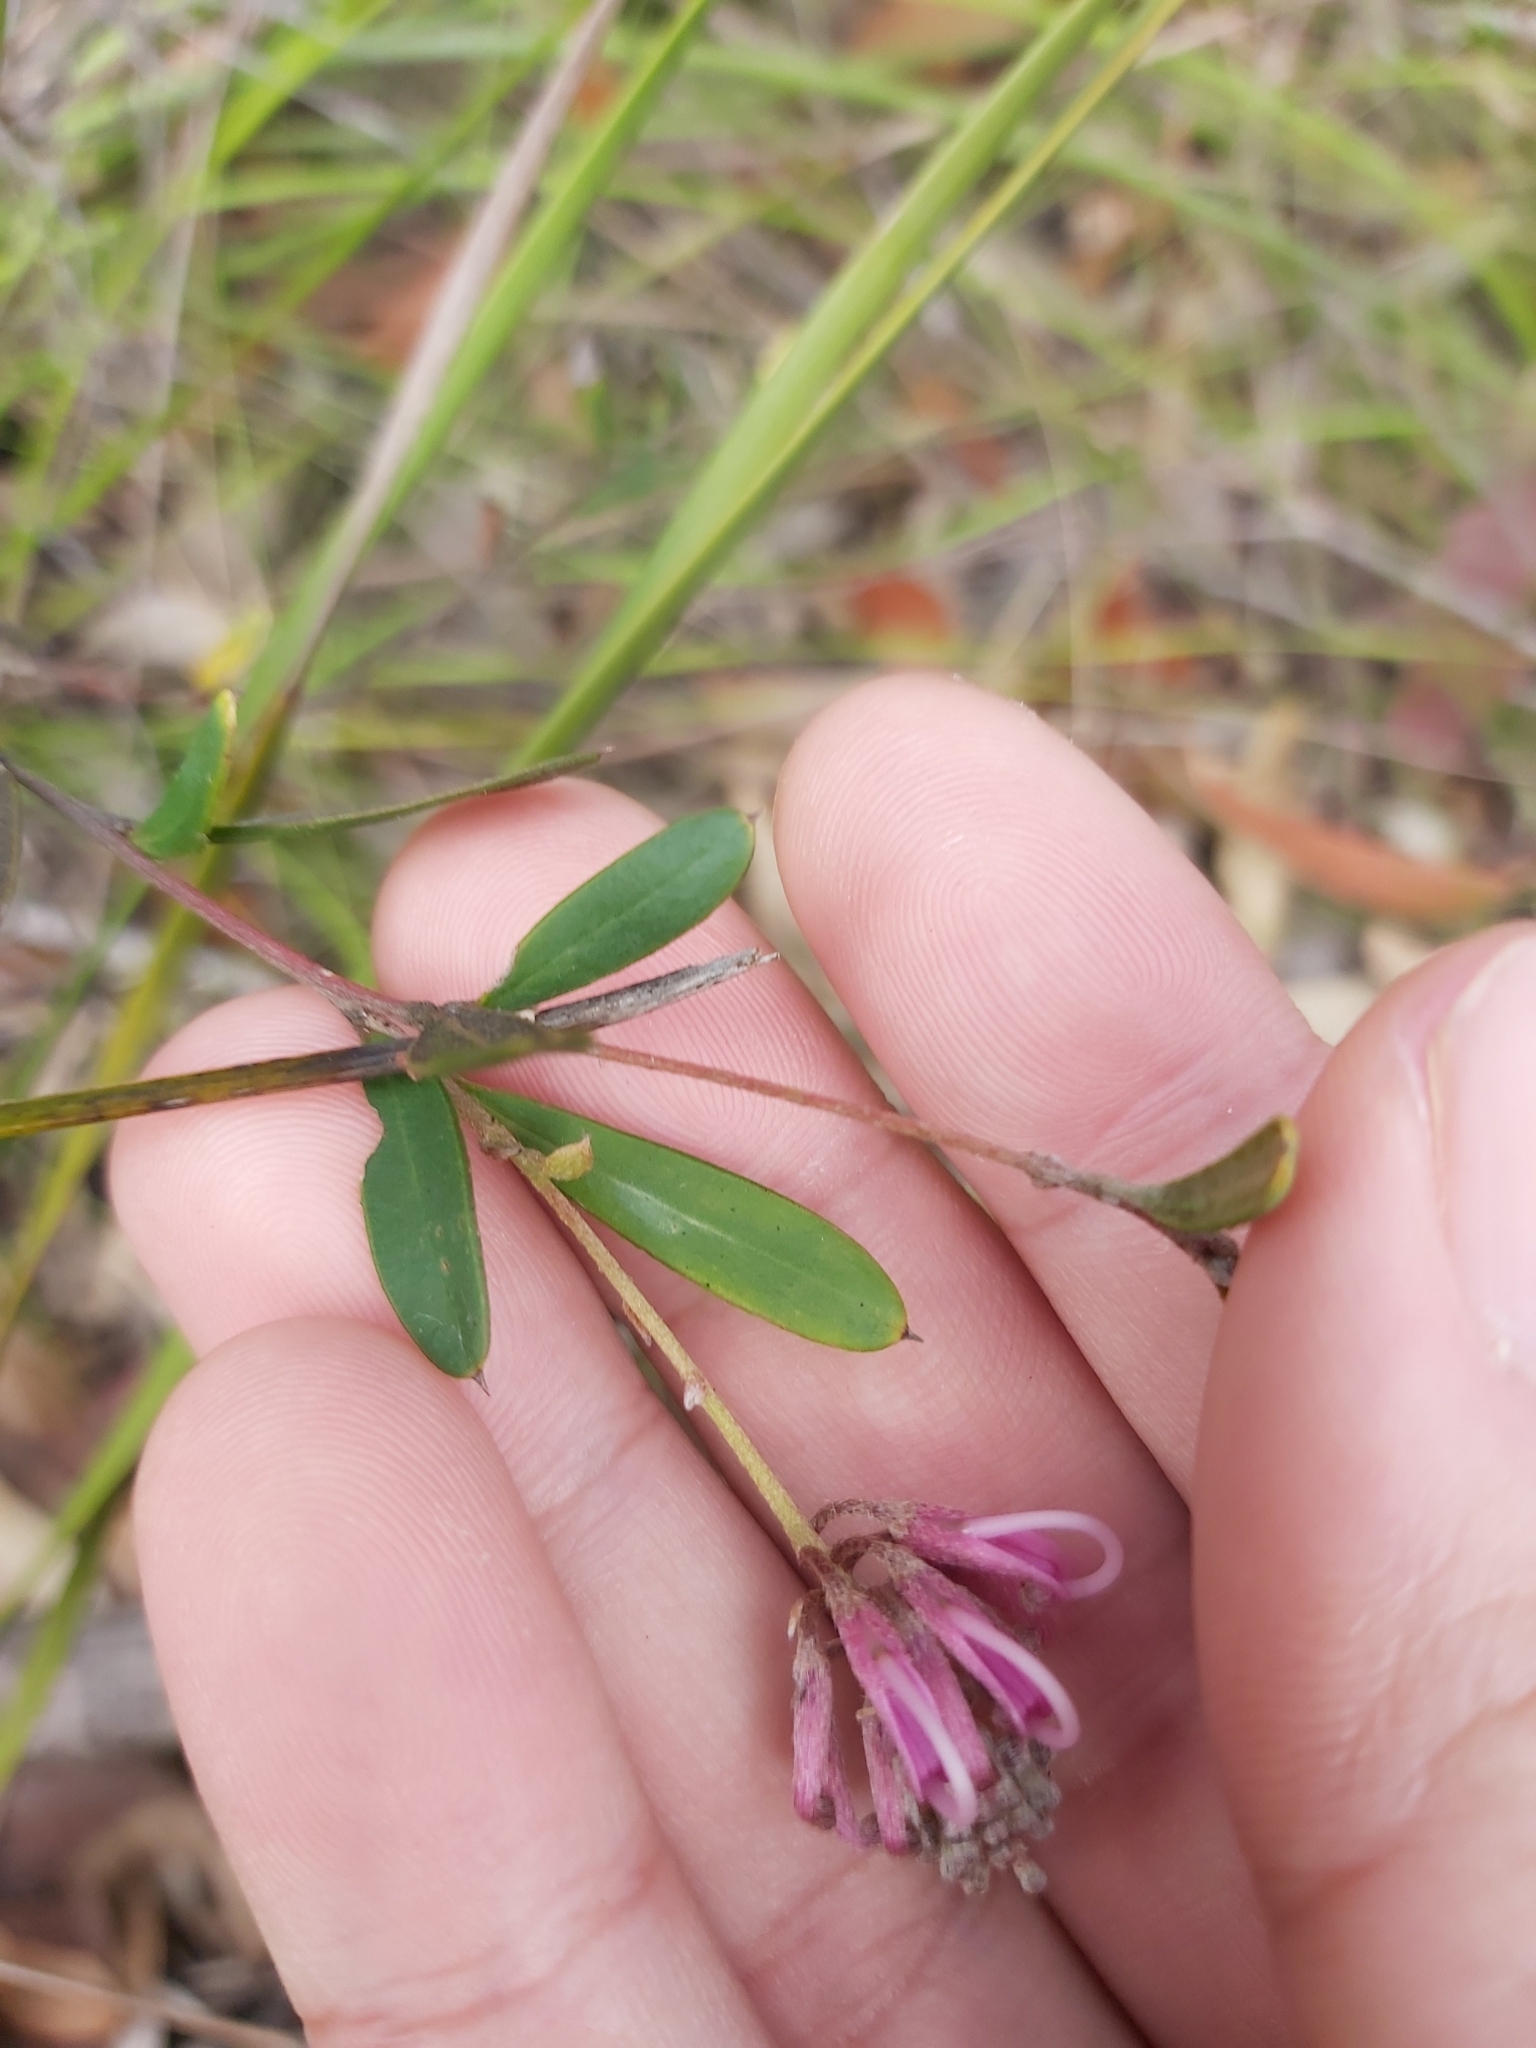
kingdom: Plantae
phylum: Tracheophyta
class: Magnoliopsida
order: Proteales
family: Proteaceae
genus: Grevillea
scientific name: Grevillea sericea
